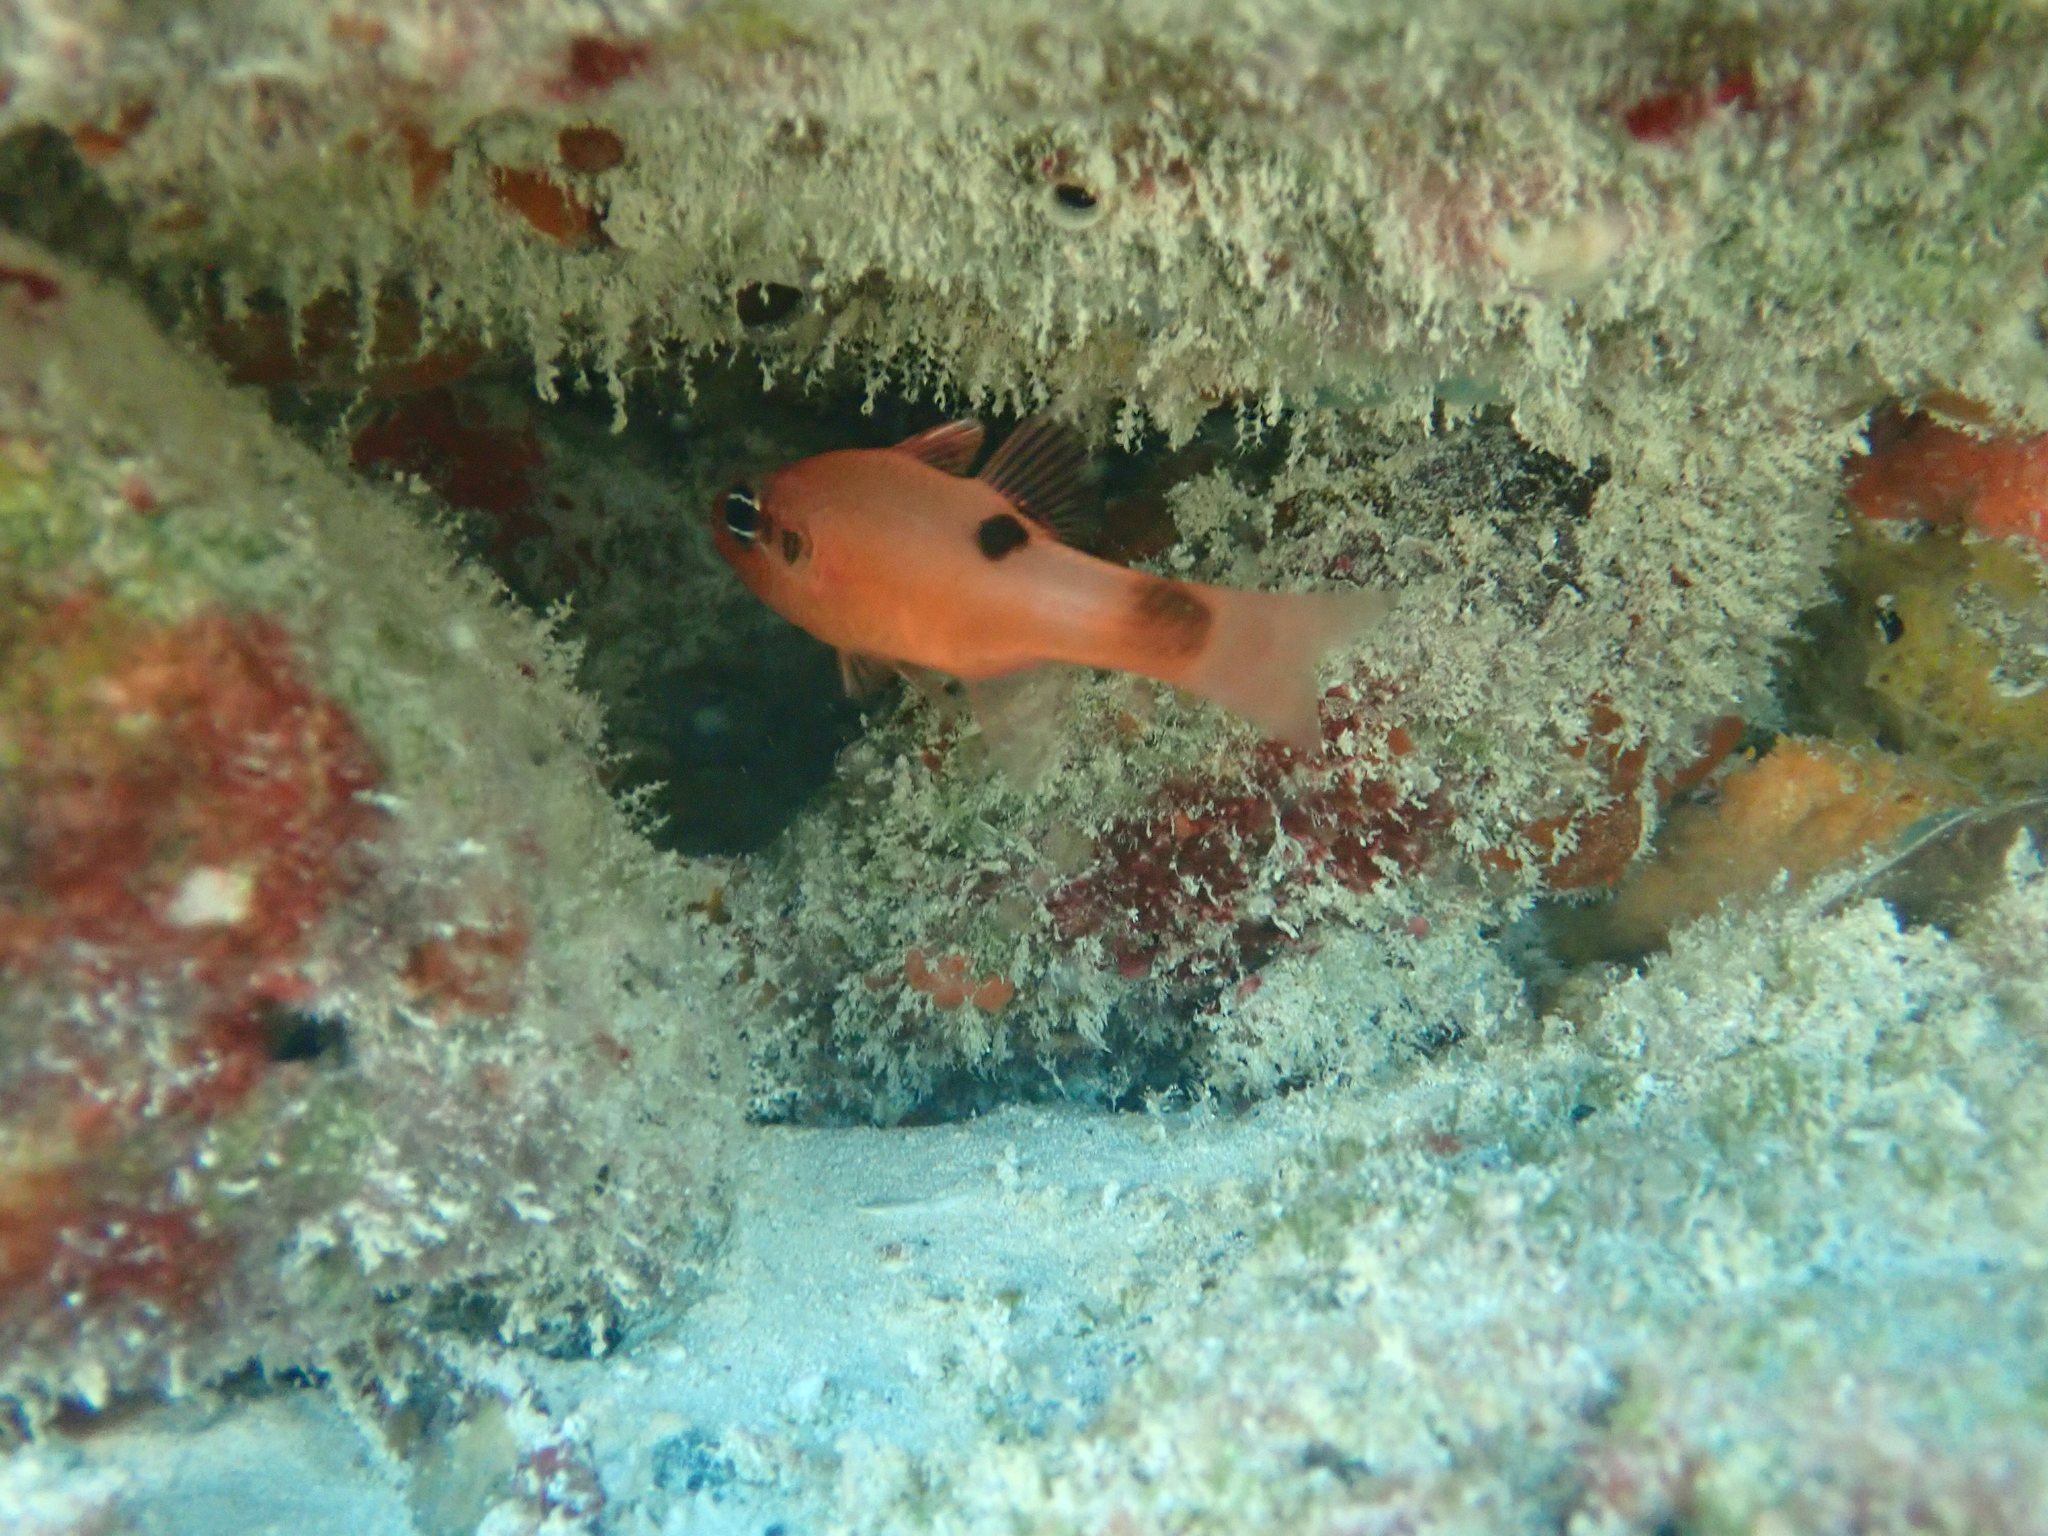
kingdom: Animalia
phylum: Chordata
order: Perciformes
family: Apogonidae
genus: Apogon
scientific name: Apogon maculatus
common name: Flamefish
